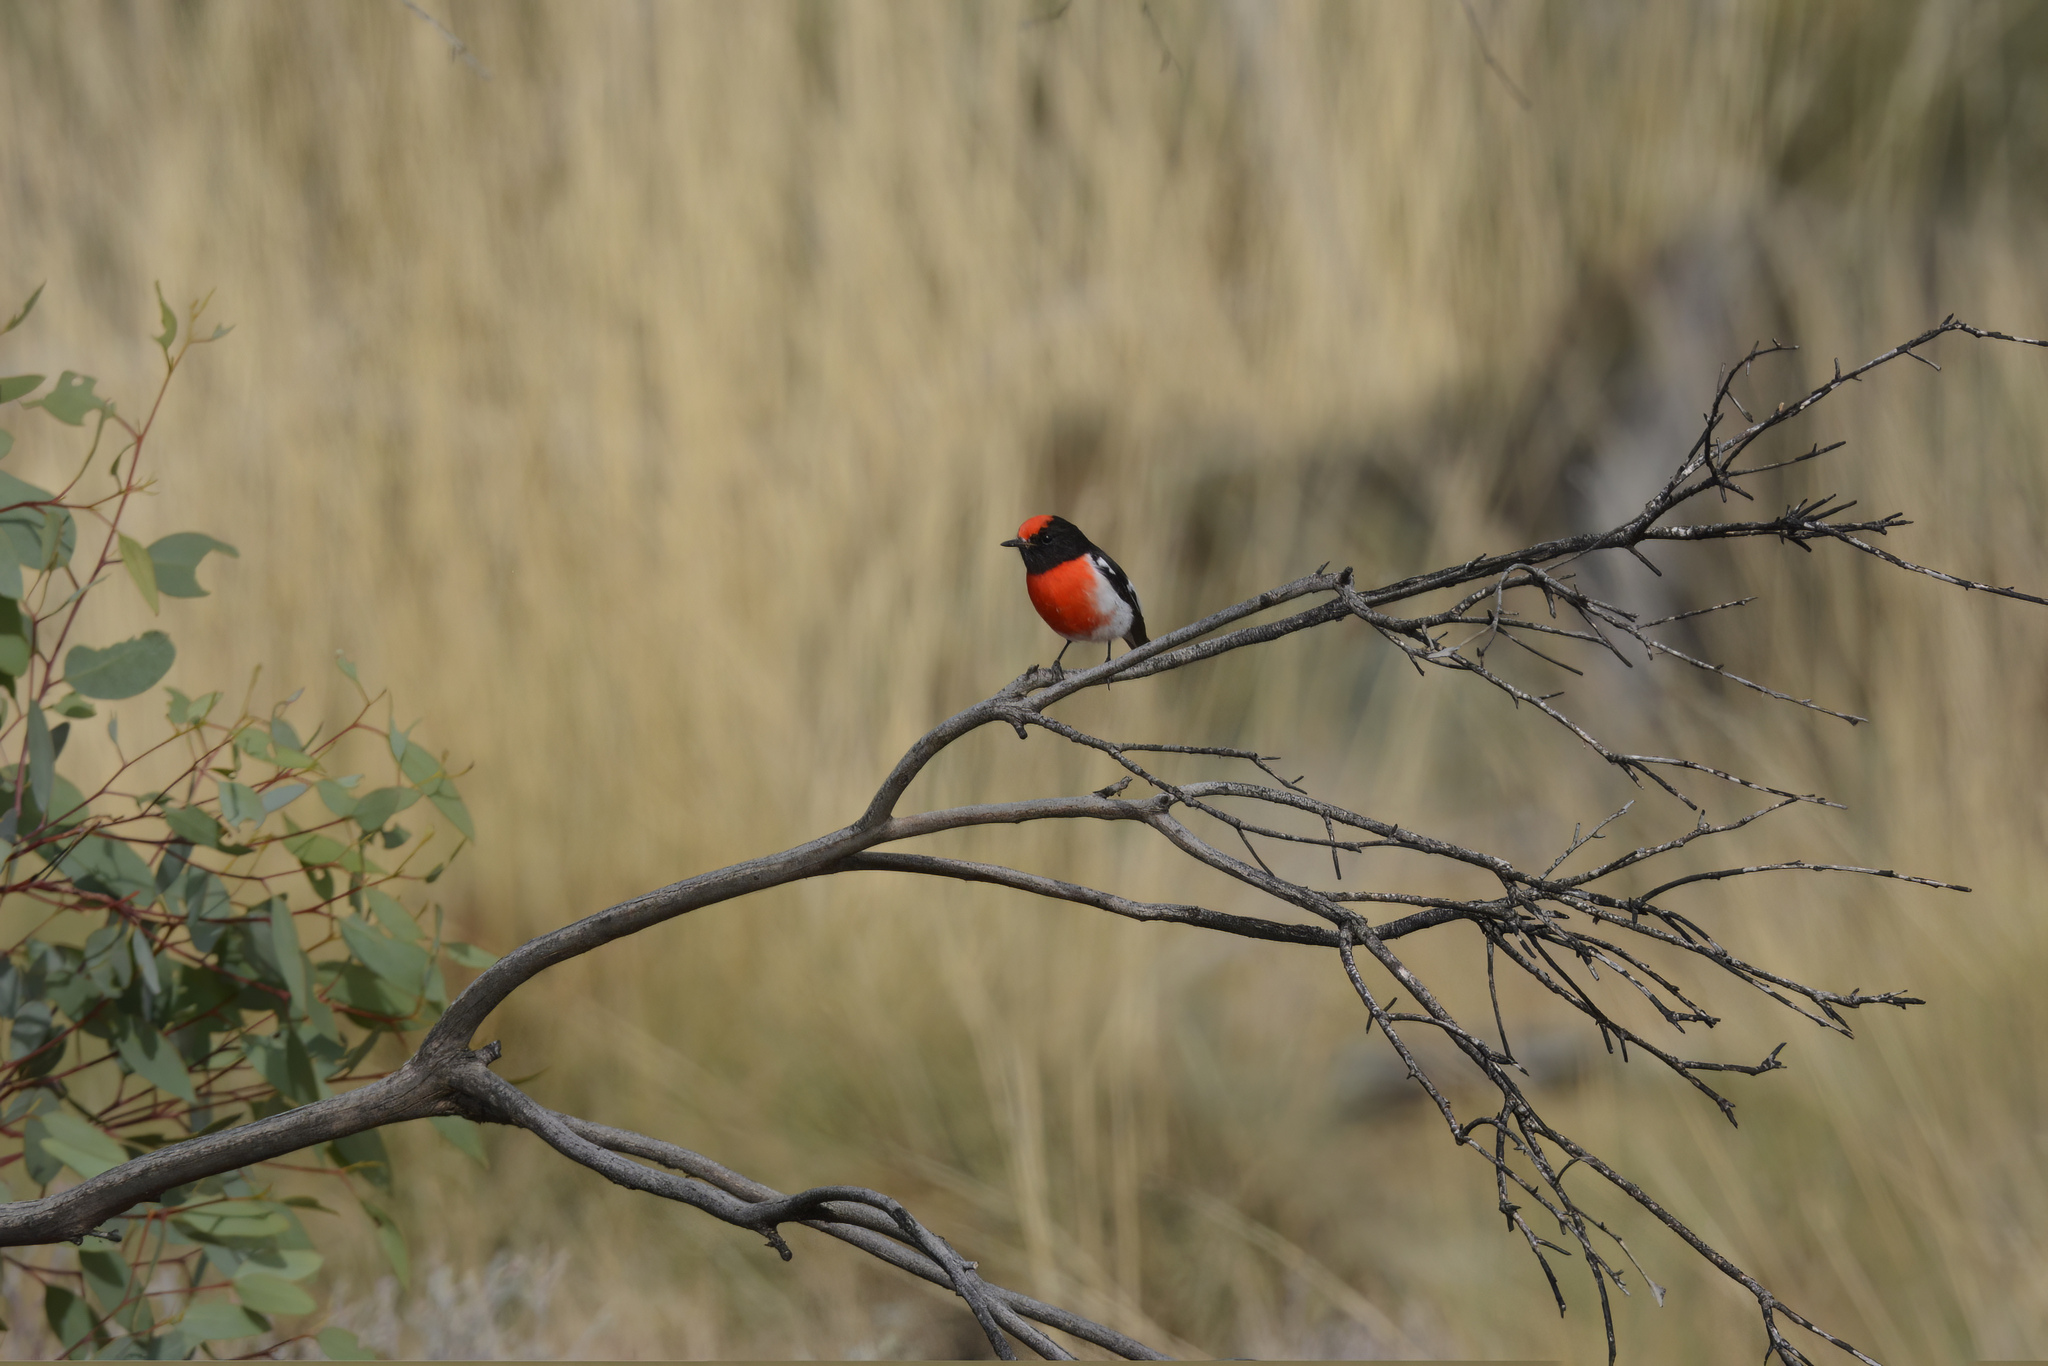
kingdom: Animalia
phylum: Chordata
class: Aves
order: Passeriformes
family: Petroicidae
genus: Petroica
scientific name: Petroica goodenovii
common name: Red-capped robin
